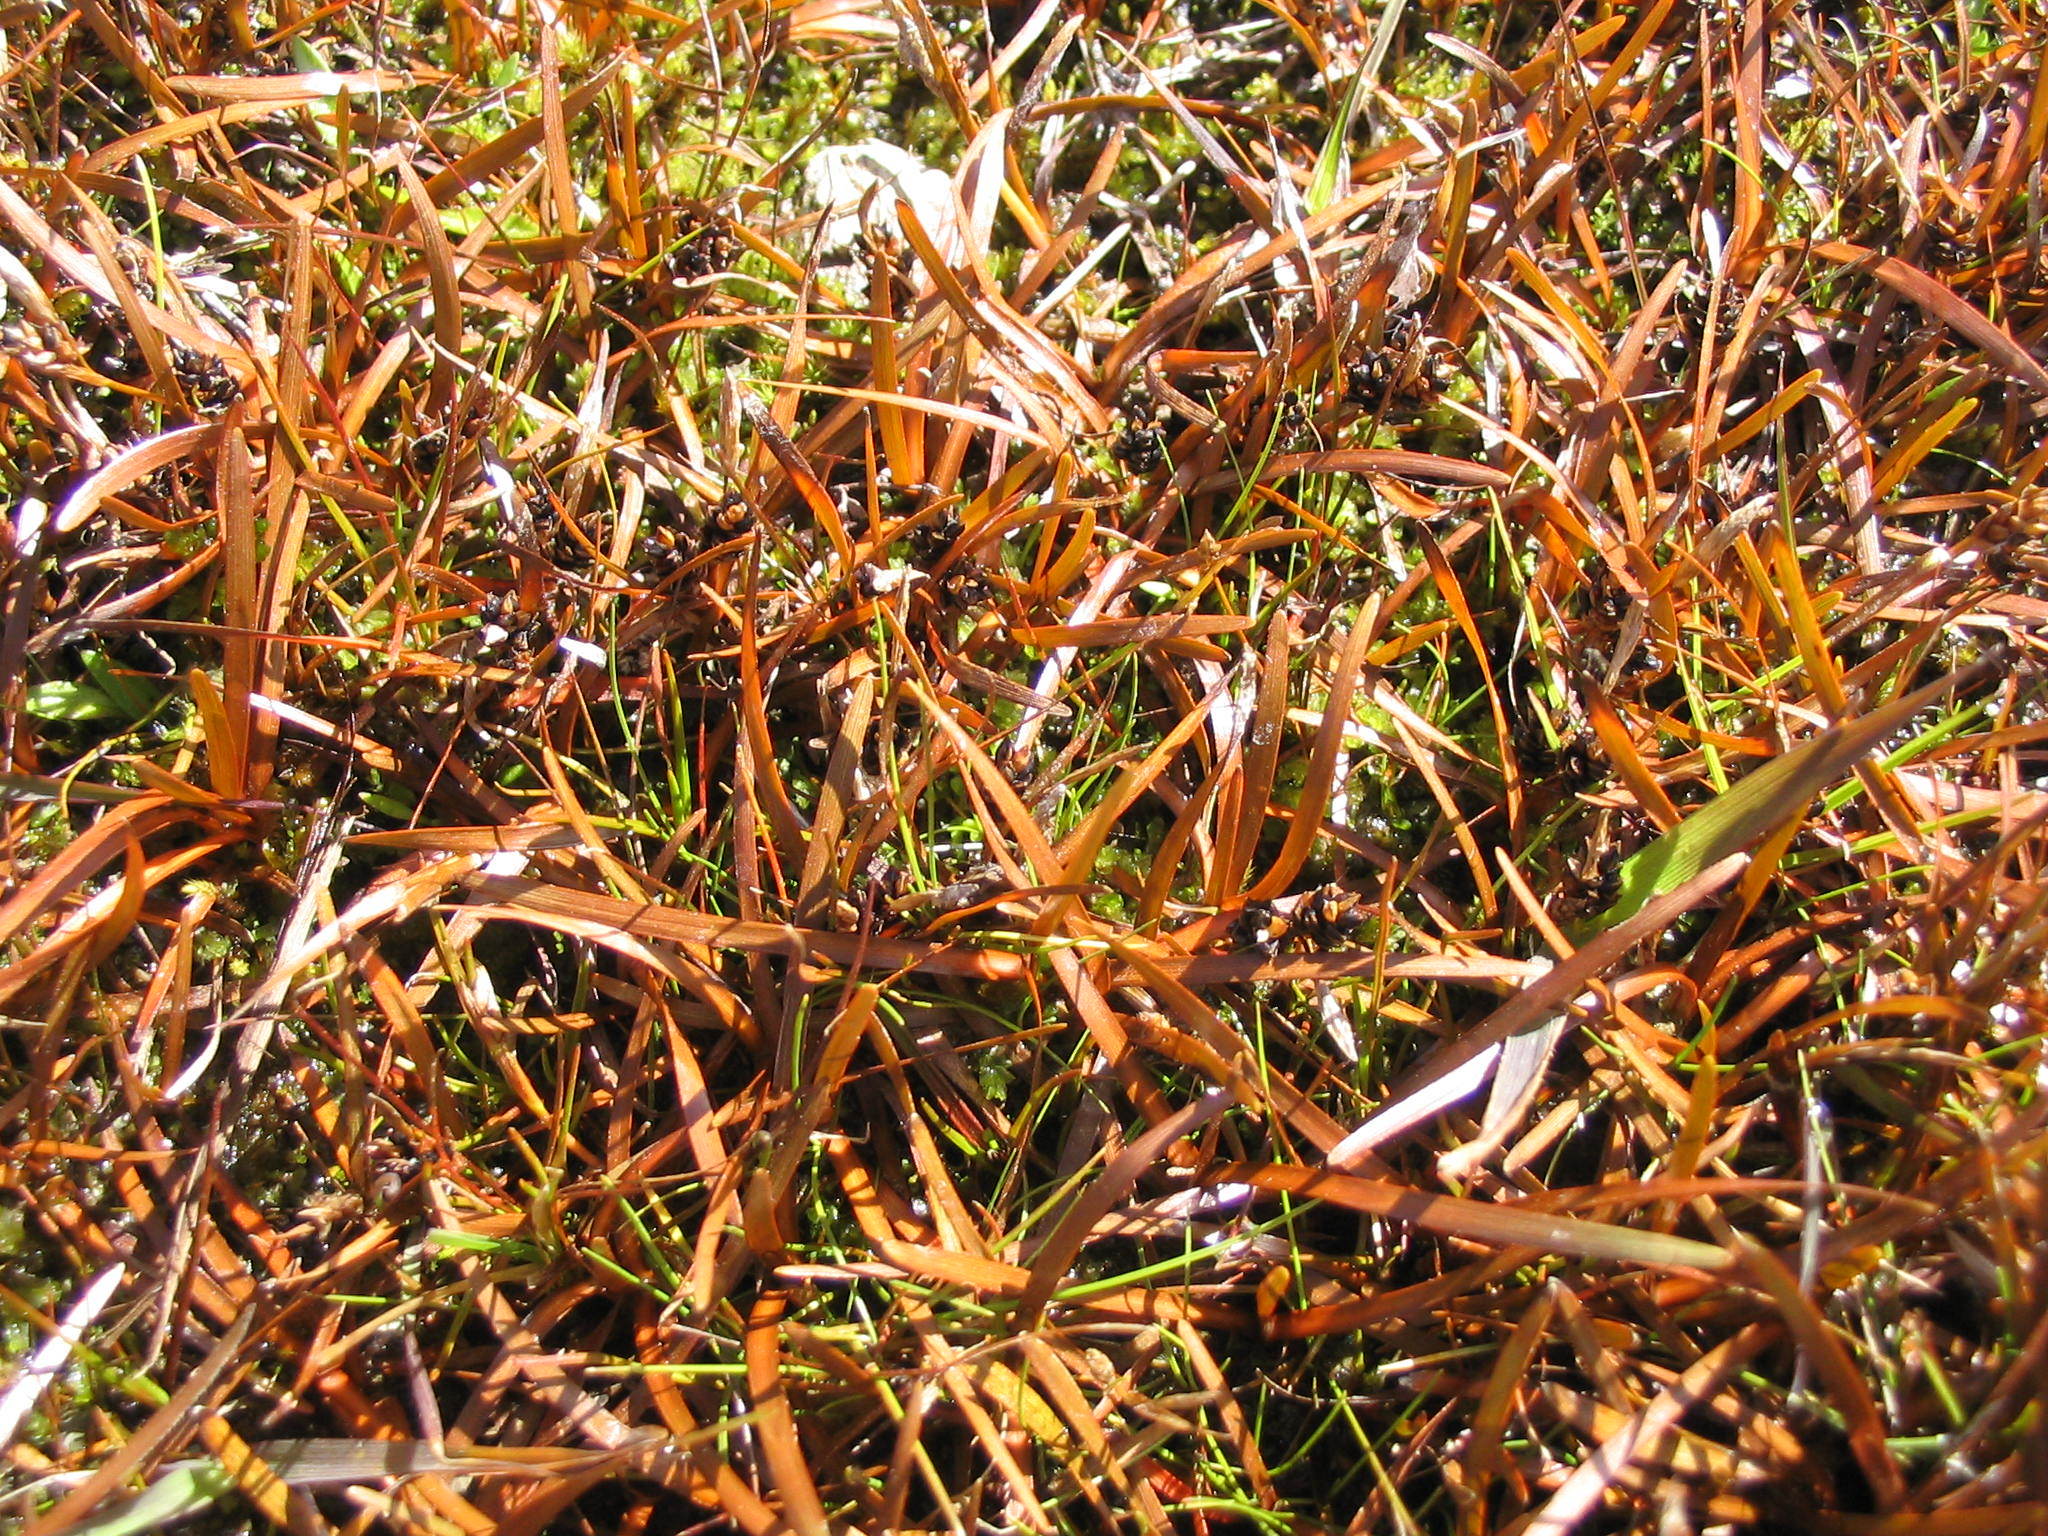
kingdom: Plantae
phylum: Tracheophyta
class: Liliopsida
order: Poales
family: Cyperaceae
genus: Carex
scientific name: Carex talbotii
